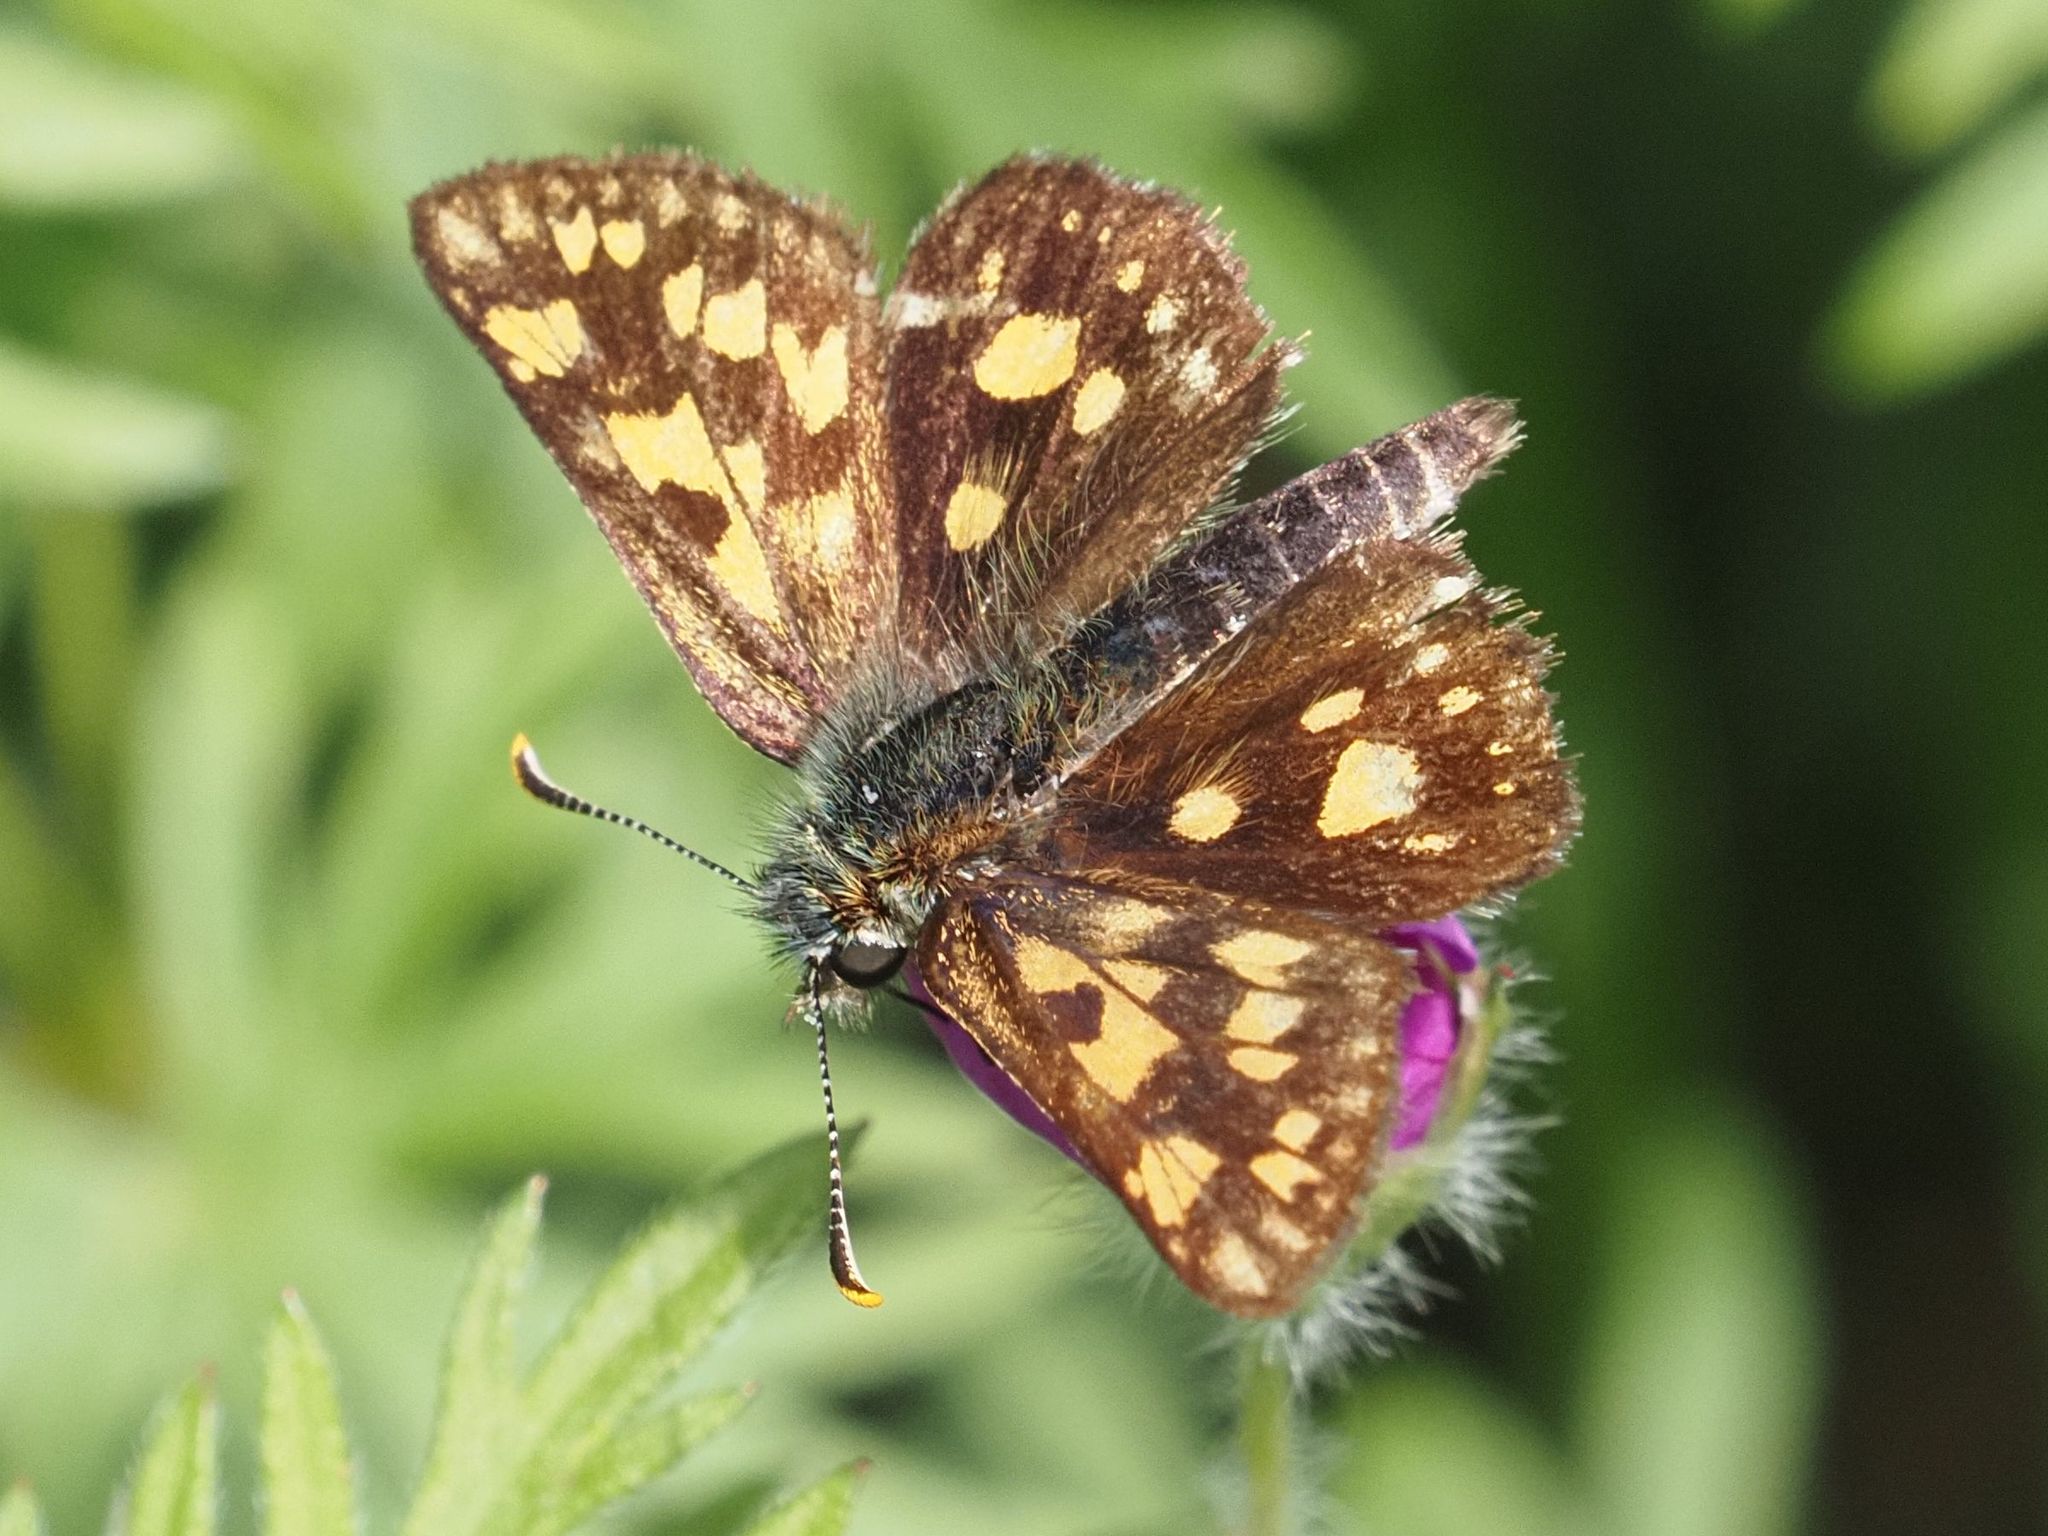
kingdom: Animalia
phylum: Arthropoda
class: Insecta
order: Lepidoptera
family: Hesperiidae
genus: Carterocephalus
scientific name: Carterocephalus palaemon
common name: Chequered skipper
